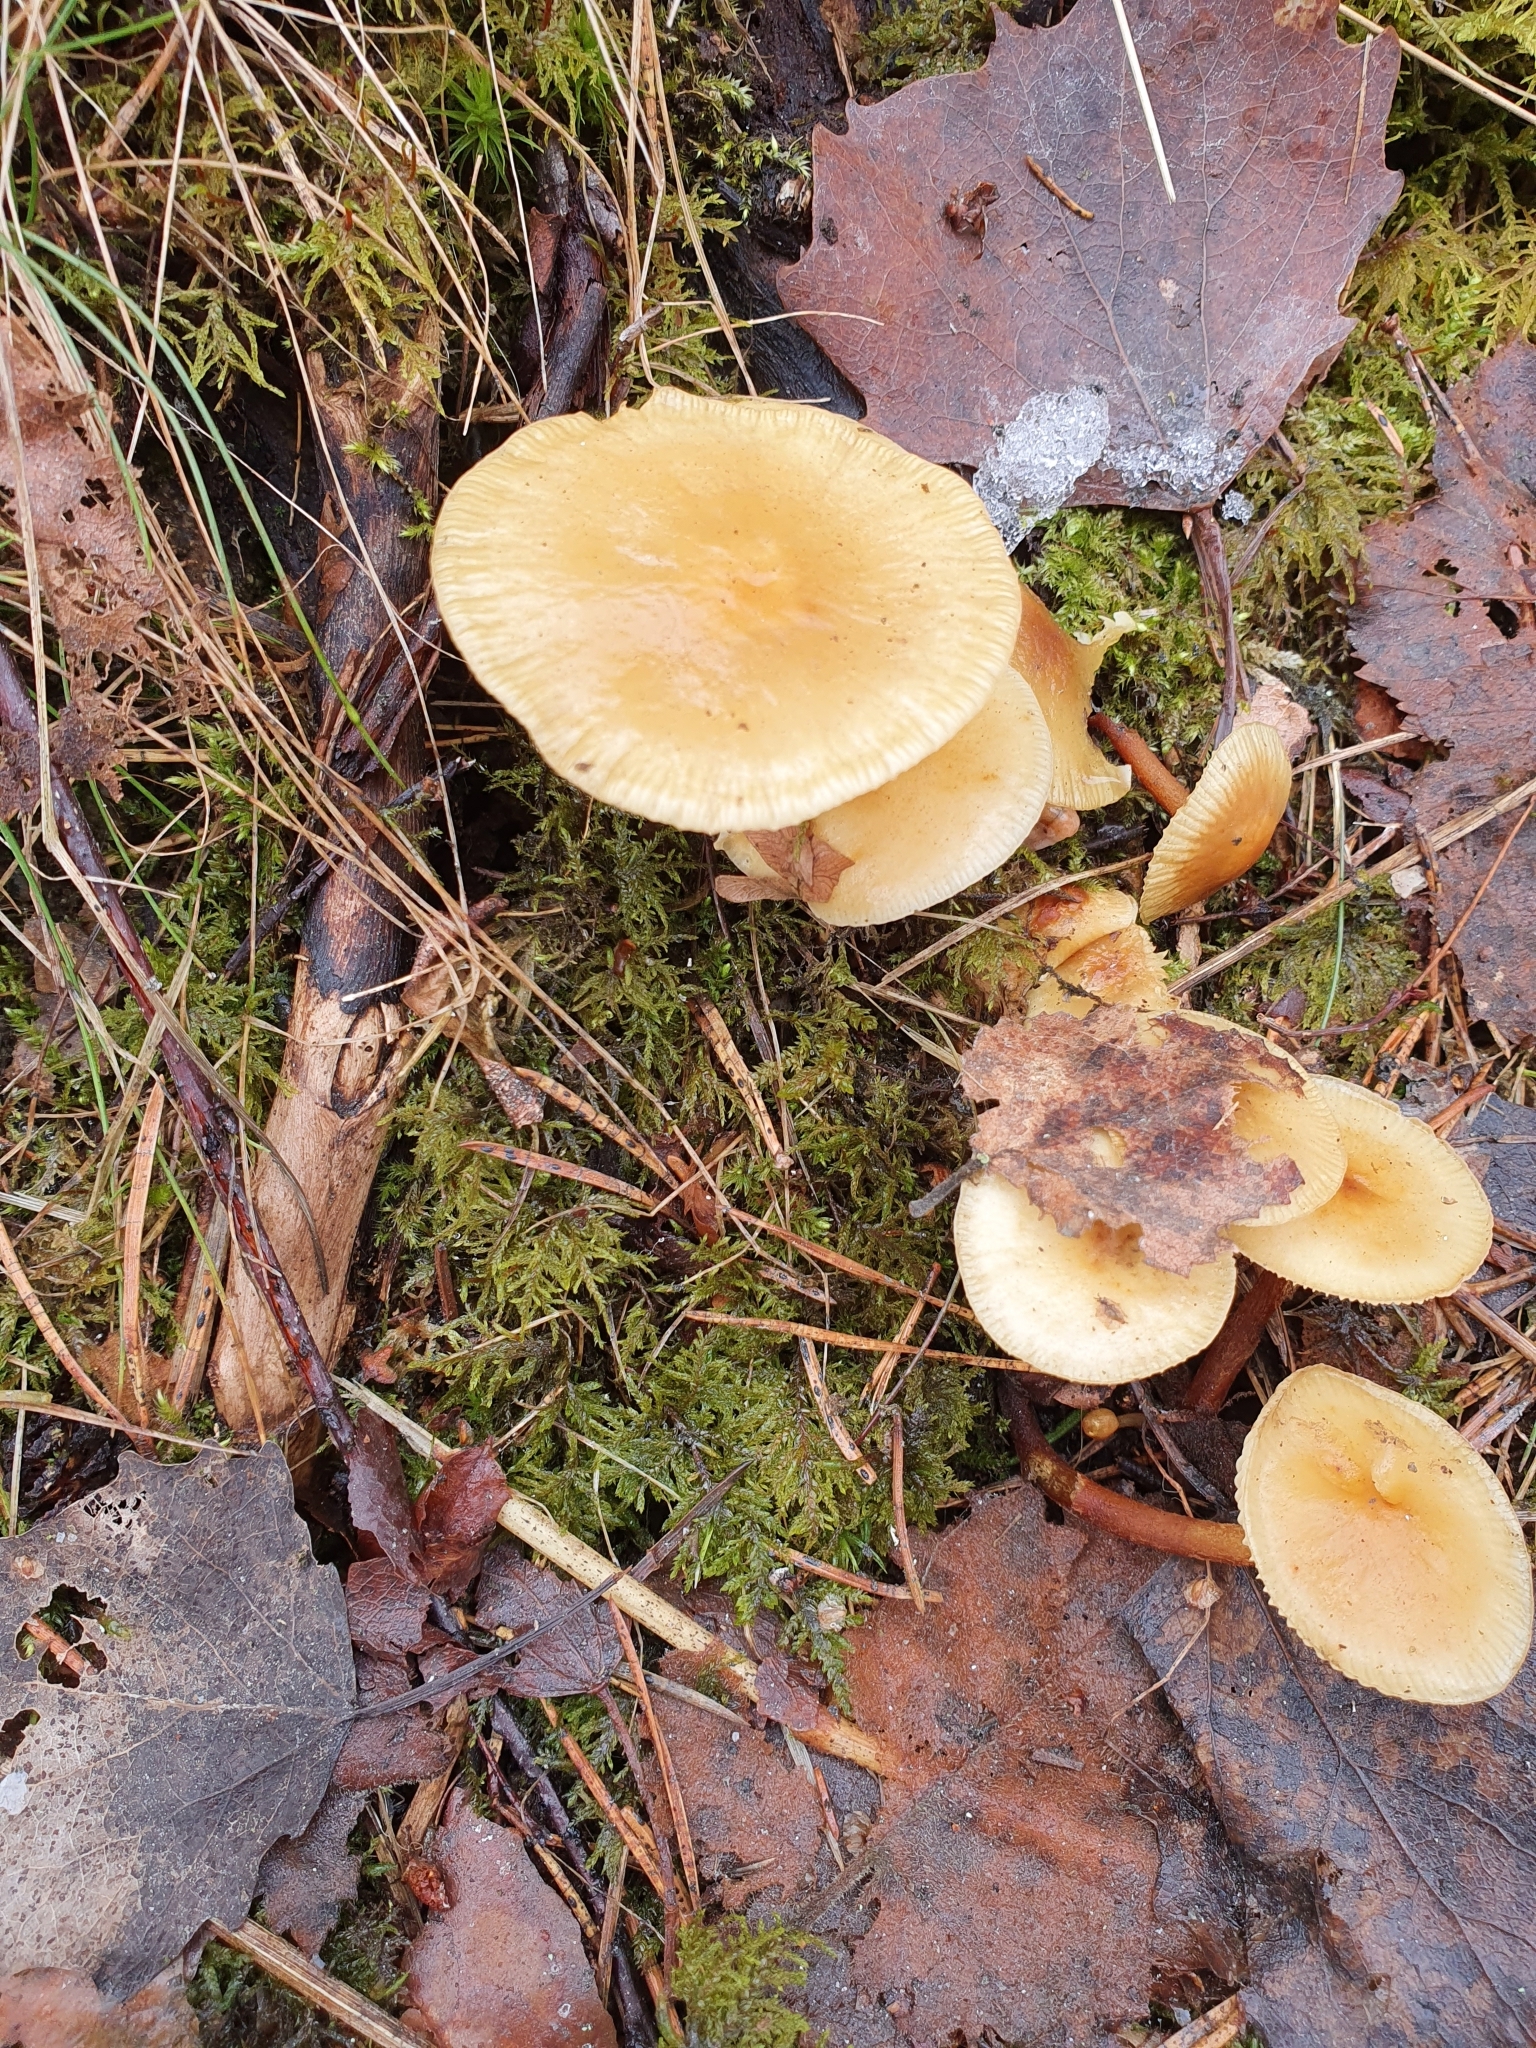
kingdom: Fungi
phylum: Basidiomycota
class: Agaricomycetes
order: Agaricales
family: Physalacriaceae
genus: Flammulina
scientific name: Flammulina
